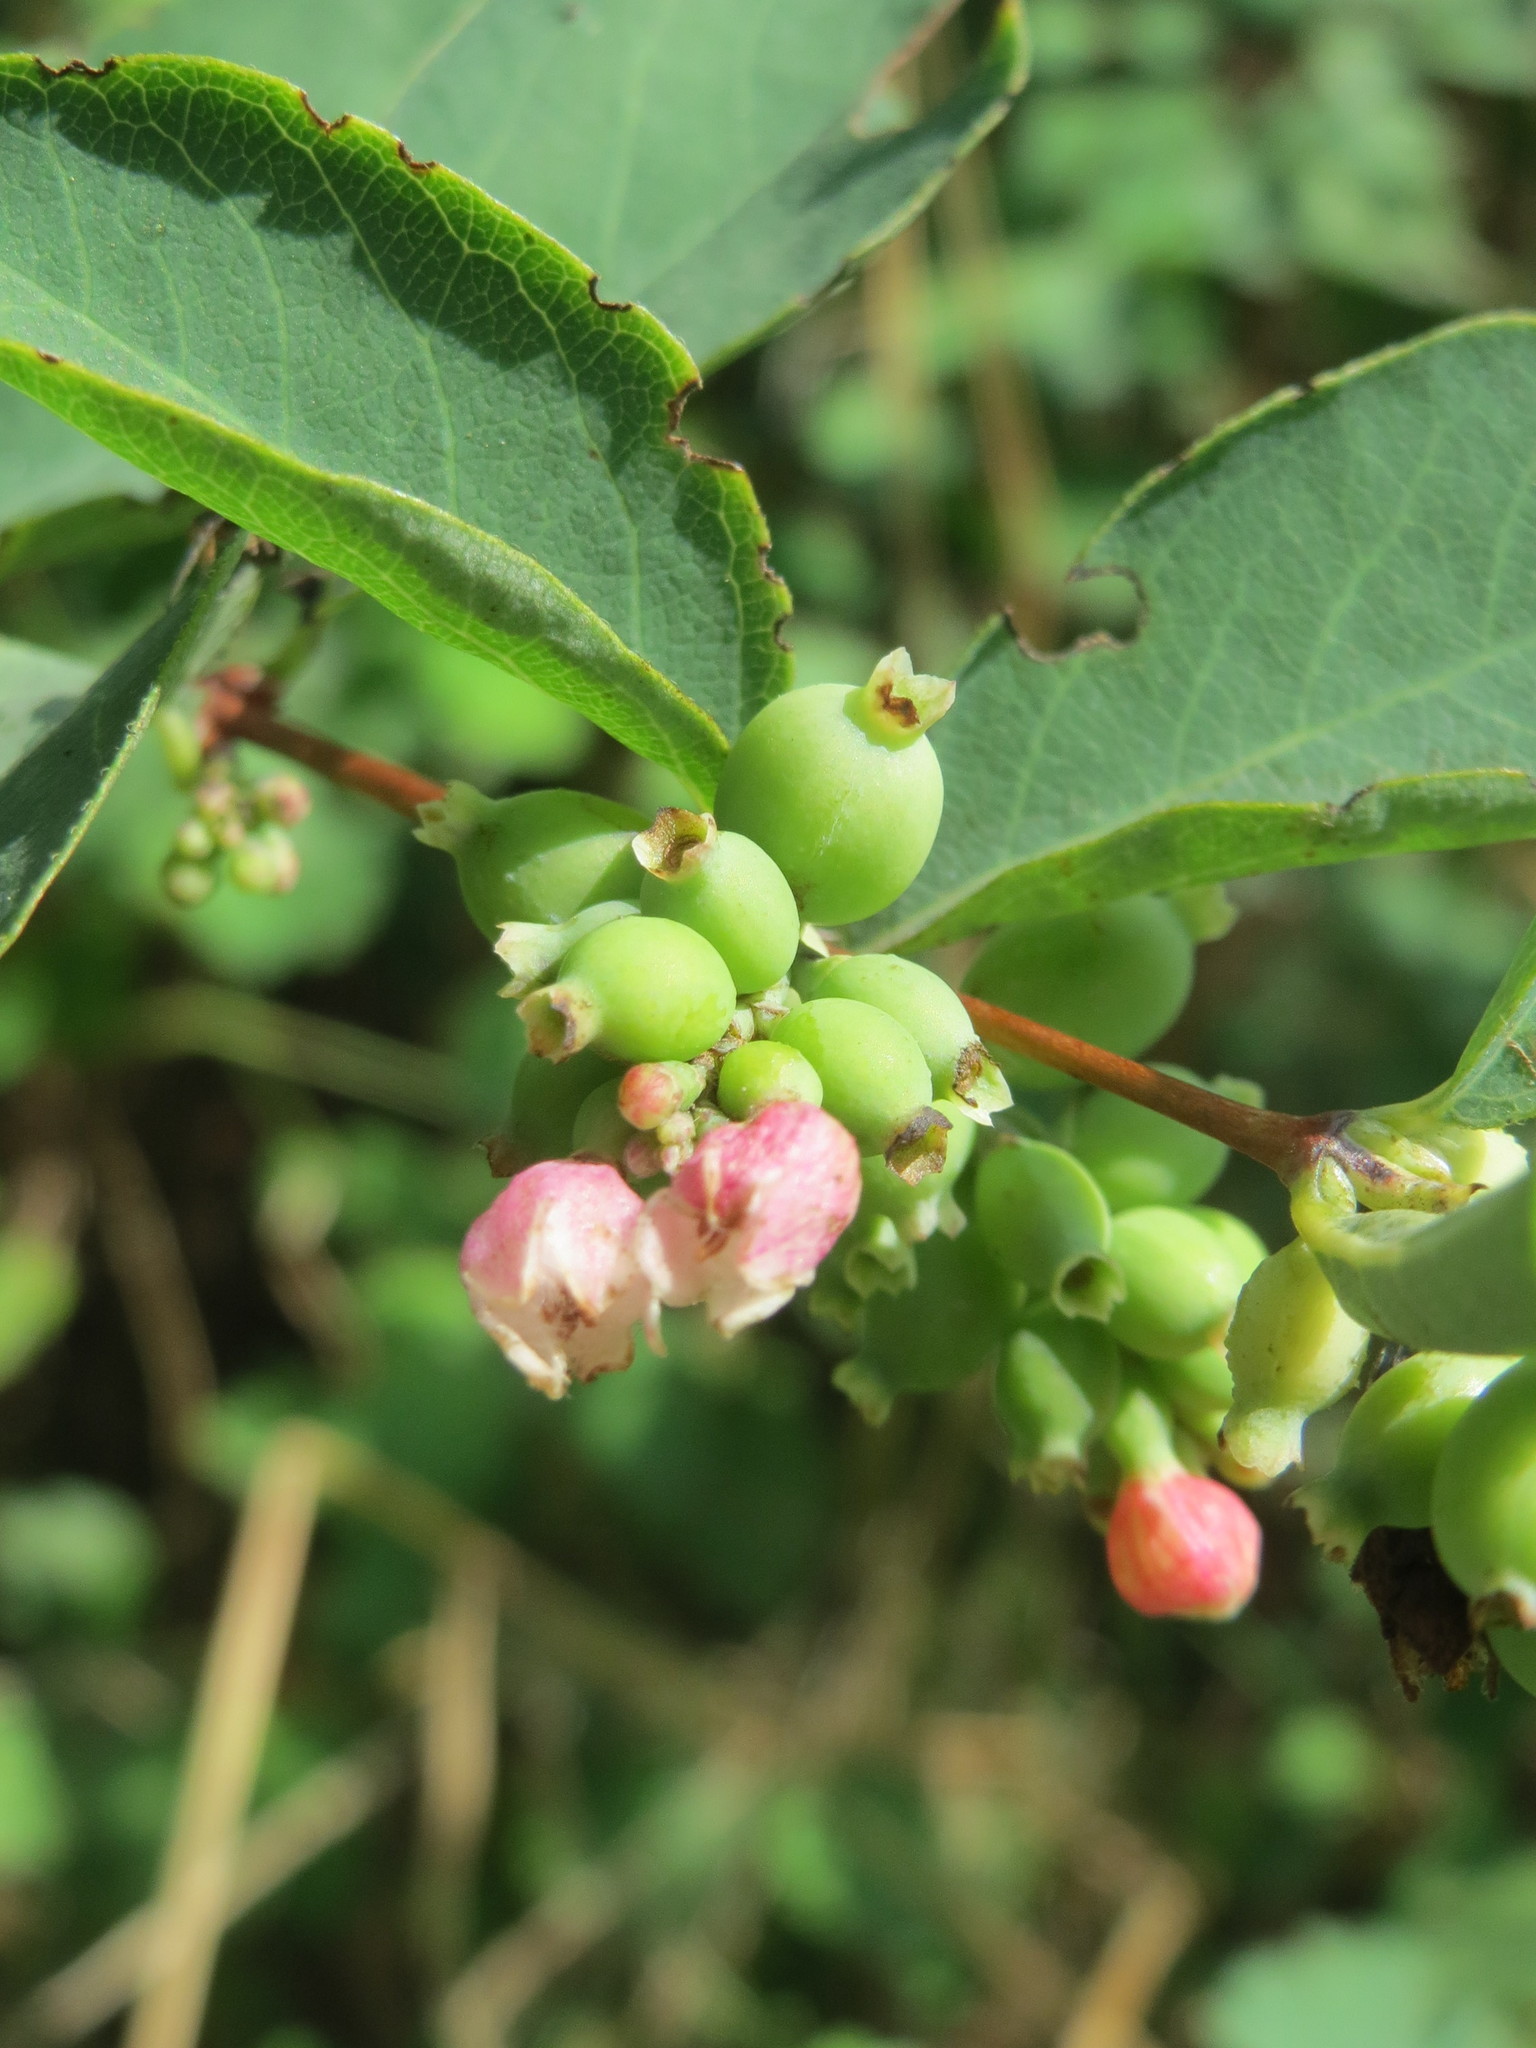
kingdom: Plantae
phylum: Tracheophyta
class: Magnoliopsida
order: Dipsacales
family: Caprifoliaceae
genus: Symphoricarpos
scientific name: Symphoricarpos albus
